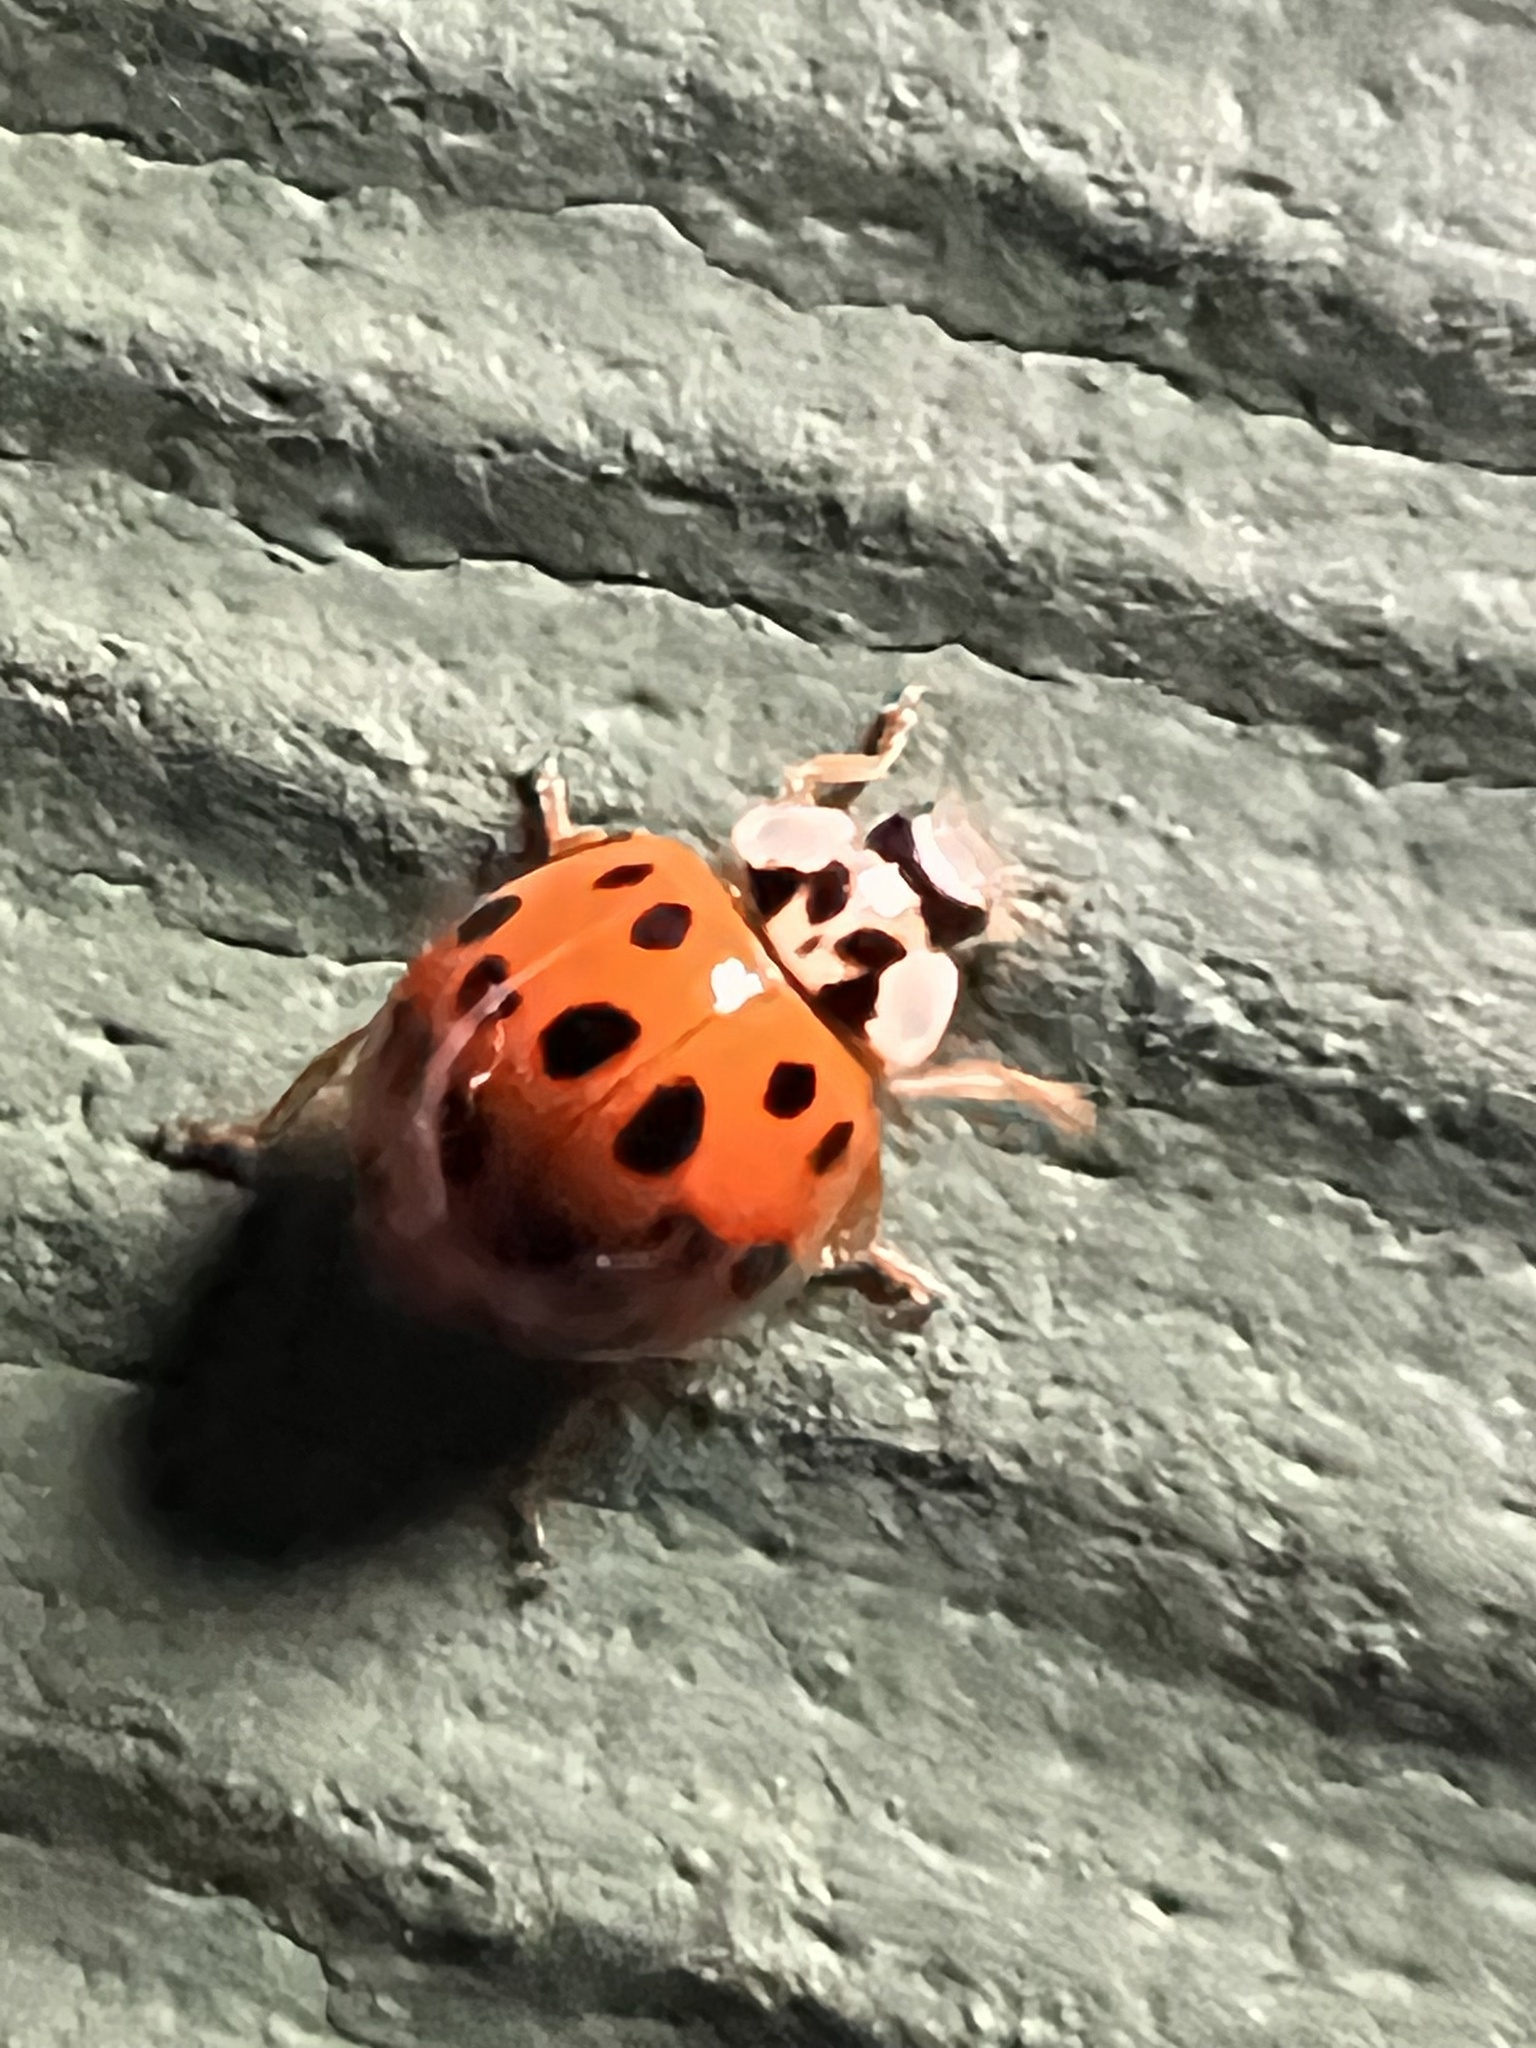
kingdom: Animalia
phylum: Arthropoda
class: Insecta
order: Coleoptera
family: Coccinellidae
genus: Harmonia
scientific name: Harmonia axyridis
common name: Harlequin ladybird
